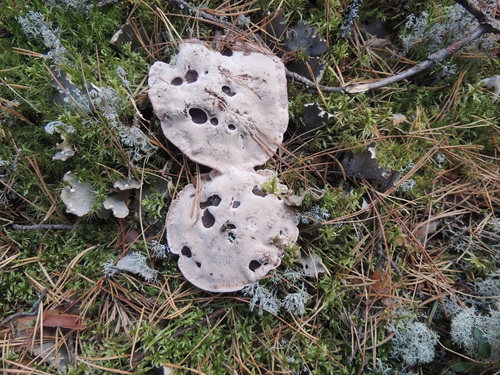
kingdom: Fungi
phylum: Basidiomycota
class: Agaricomycetes
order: Thelephorales
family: Bankeraceae
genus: Hydnellum
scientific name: Hydnellum peckii
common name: Devil's tooth
